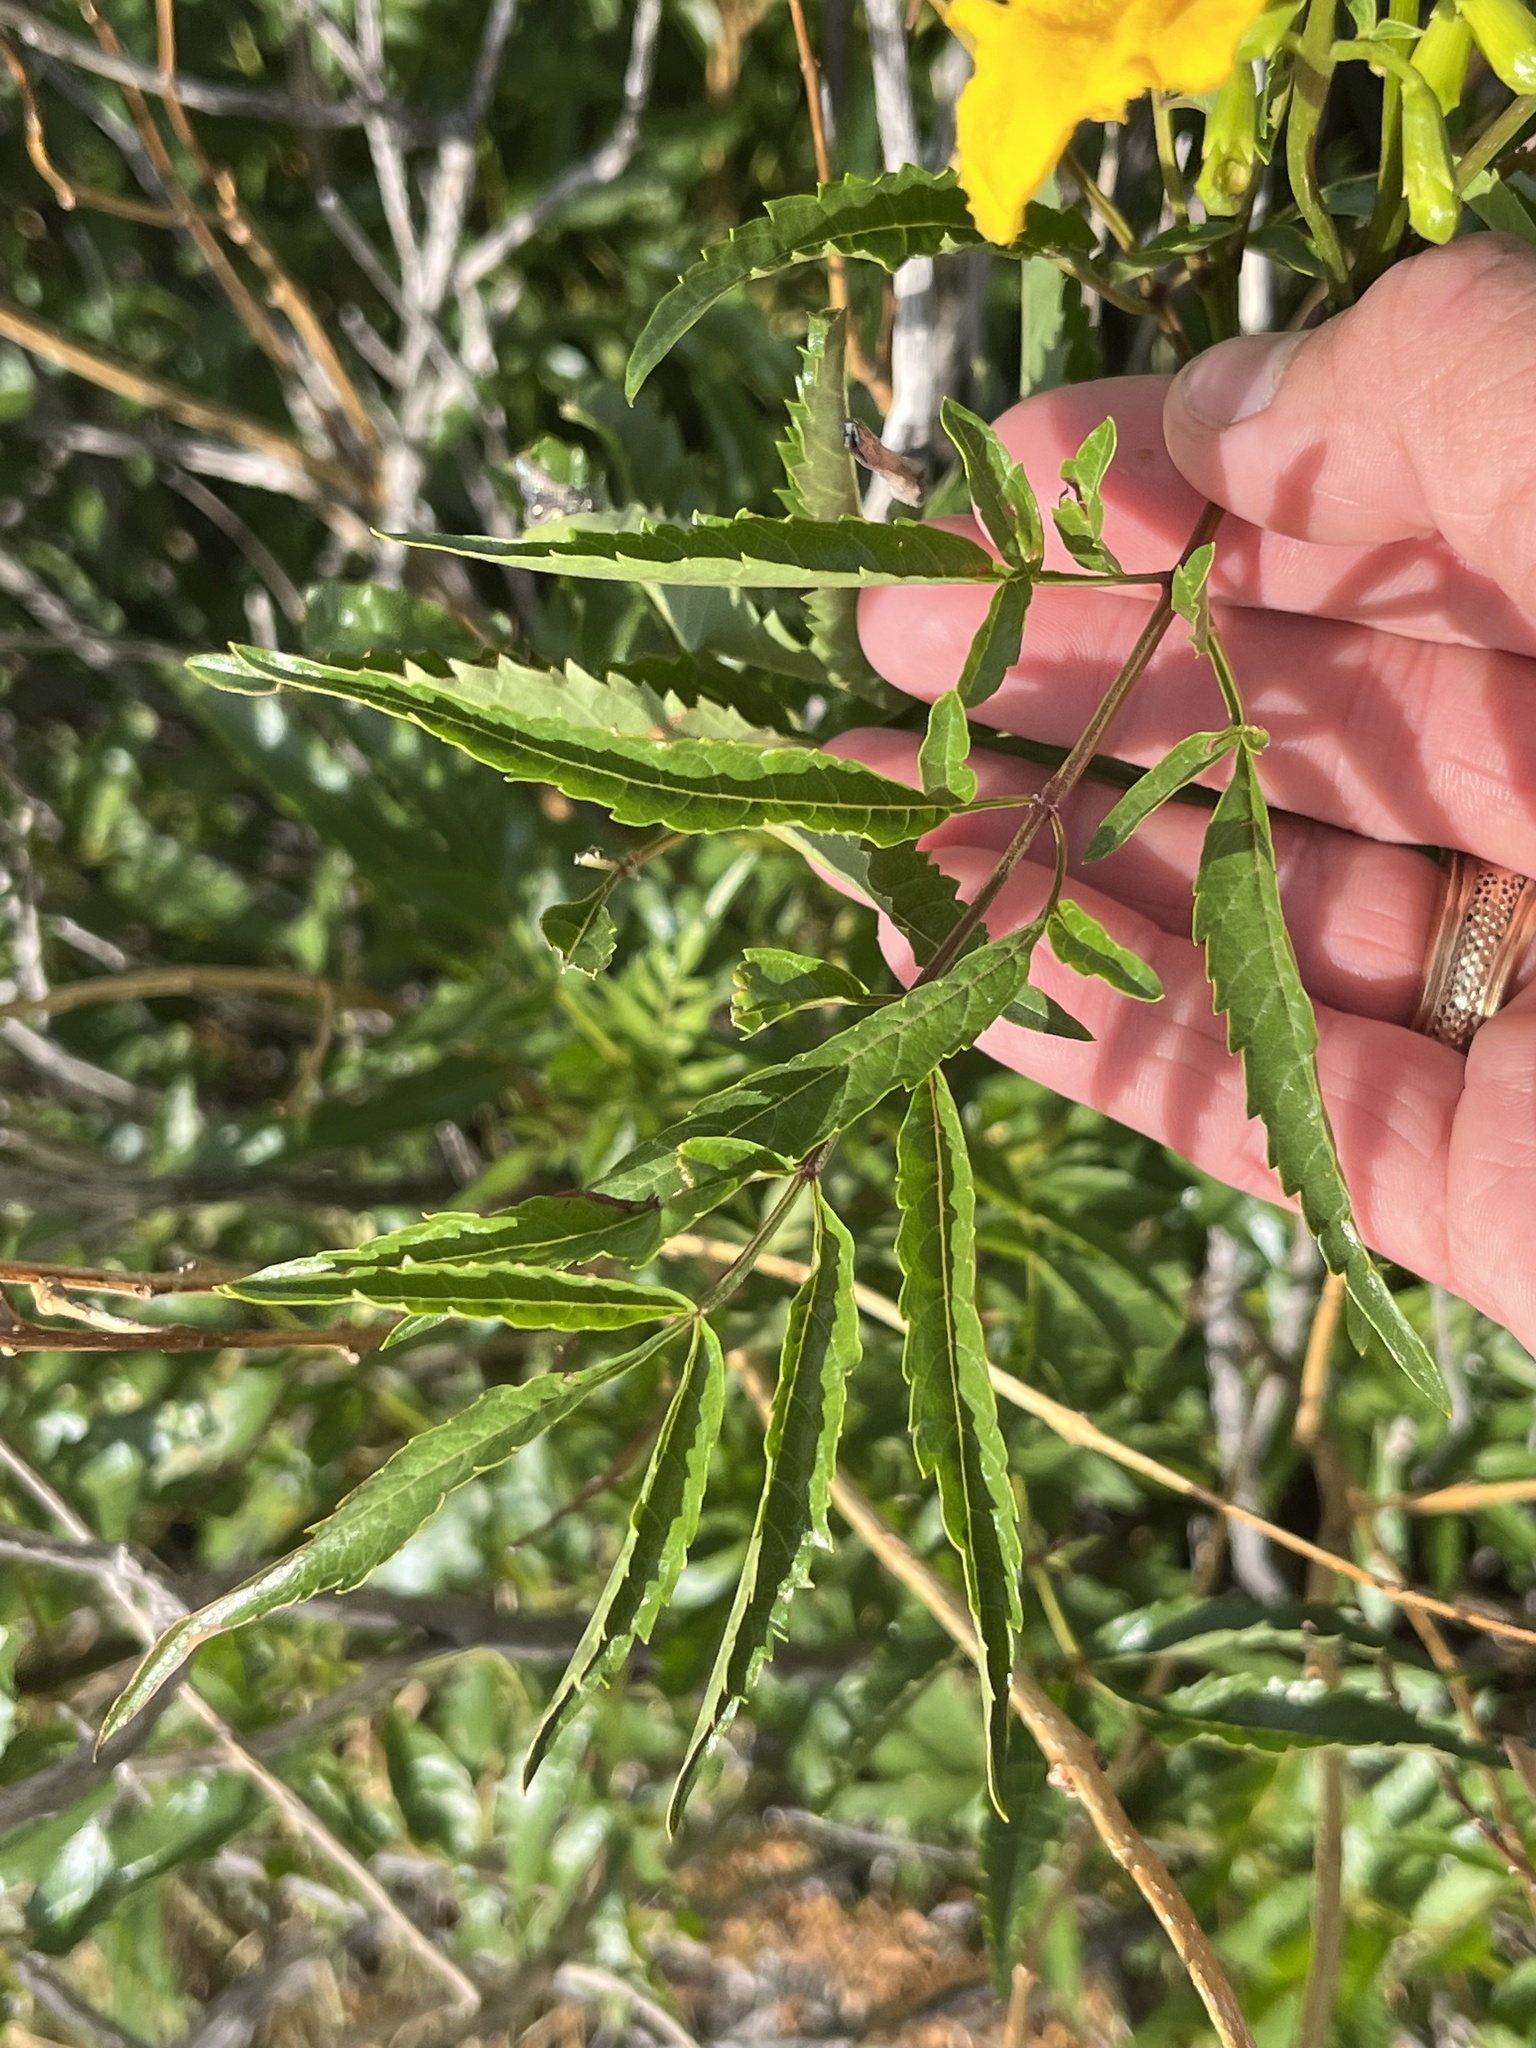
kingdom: Plantae
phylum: Tracheophyta
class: Magnoliopsida
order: Lamiales
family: Bignoniaceae
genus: Tecoma
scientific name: Tecoma stans
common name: Yellow trumpetbush
